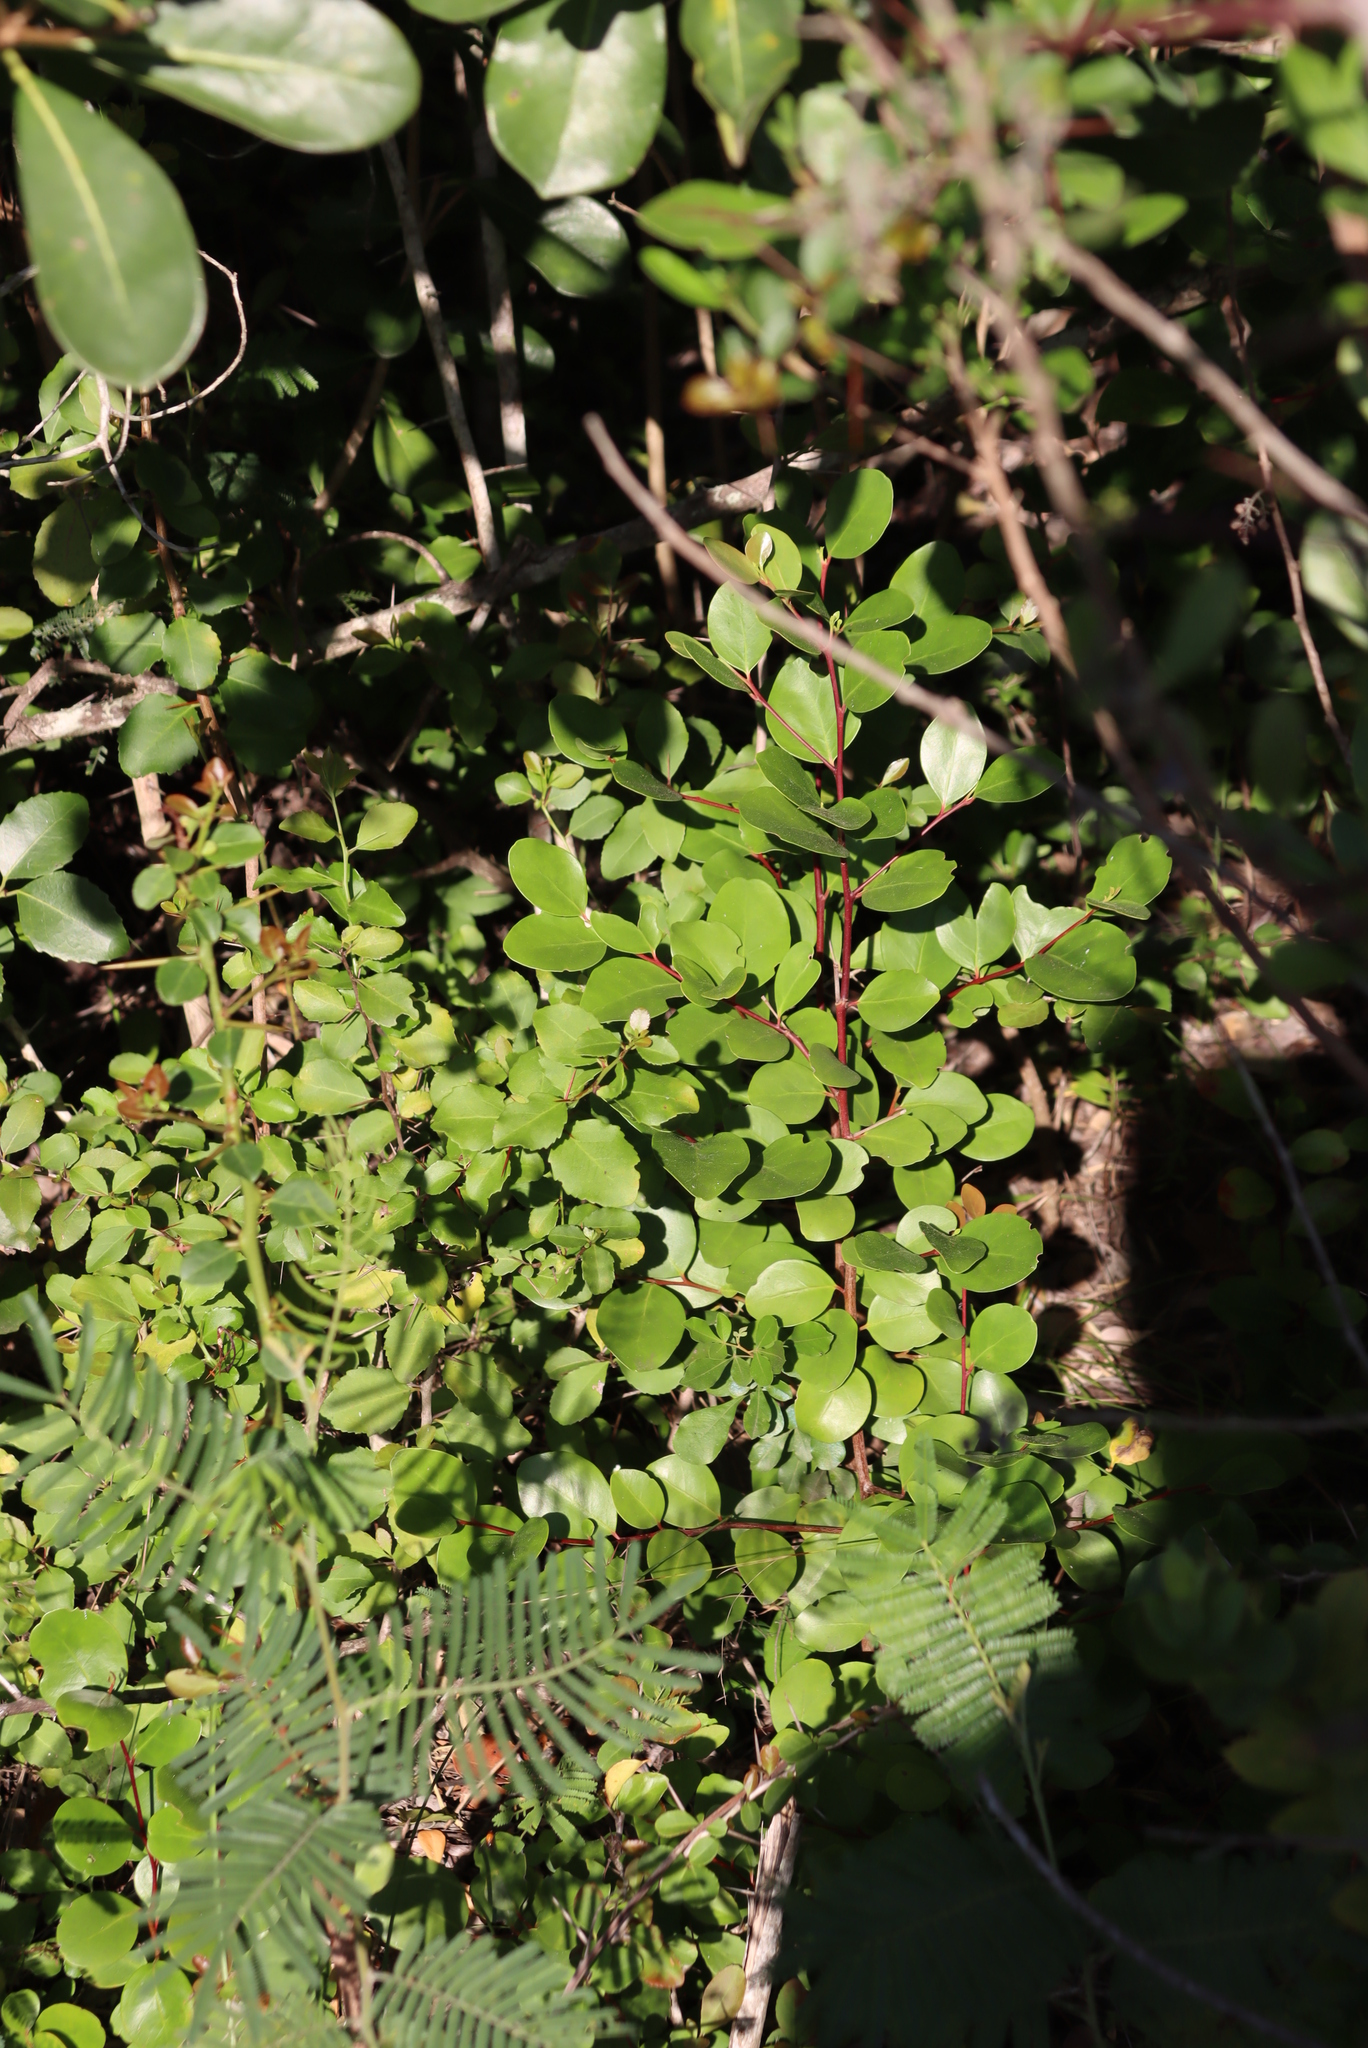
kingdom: Plantae
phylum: Tracheophyta
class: Magnoliopsida
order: Celastrales
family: Celastraceae
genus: Pterocelastrus
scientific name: Pterocelastrus tricuspidatus
